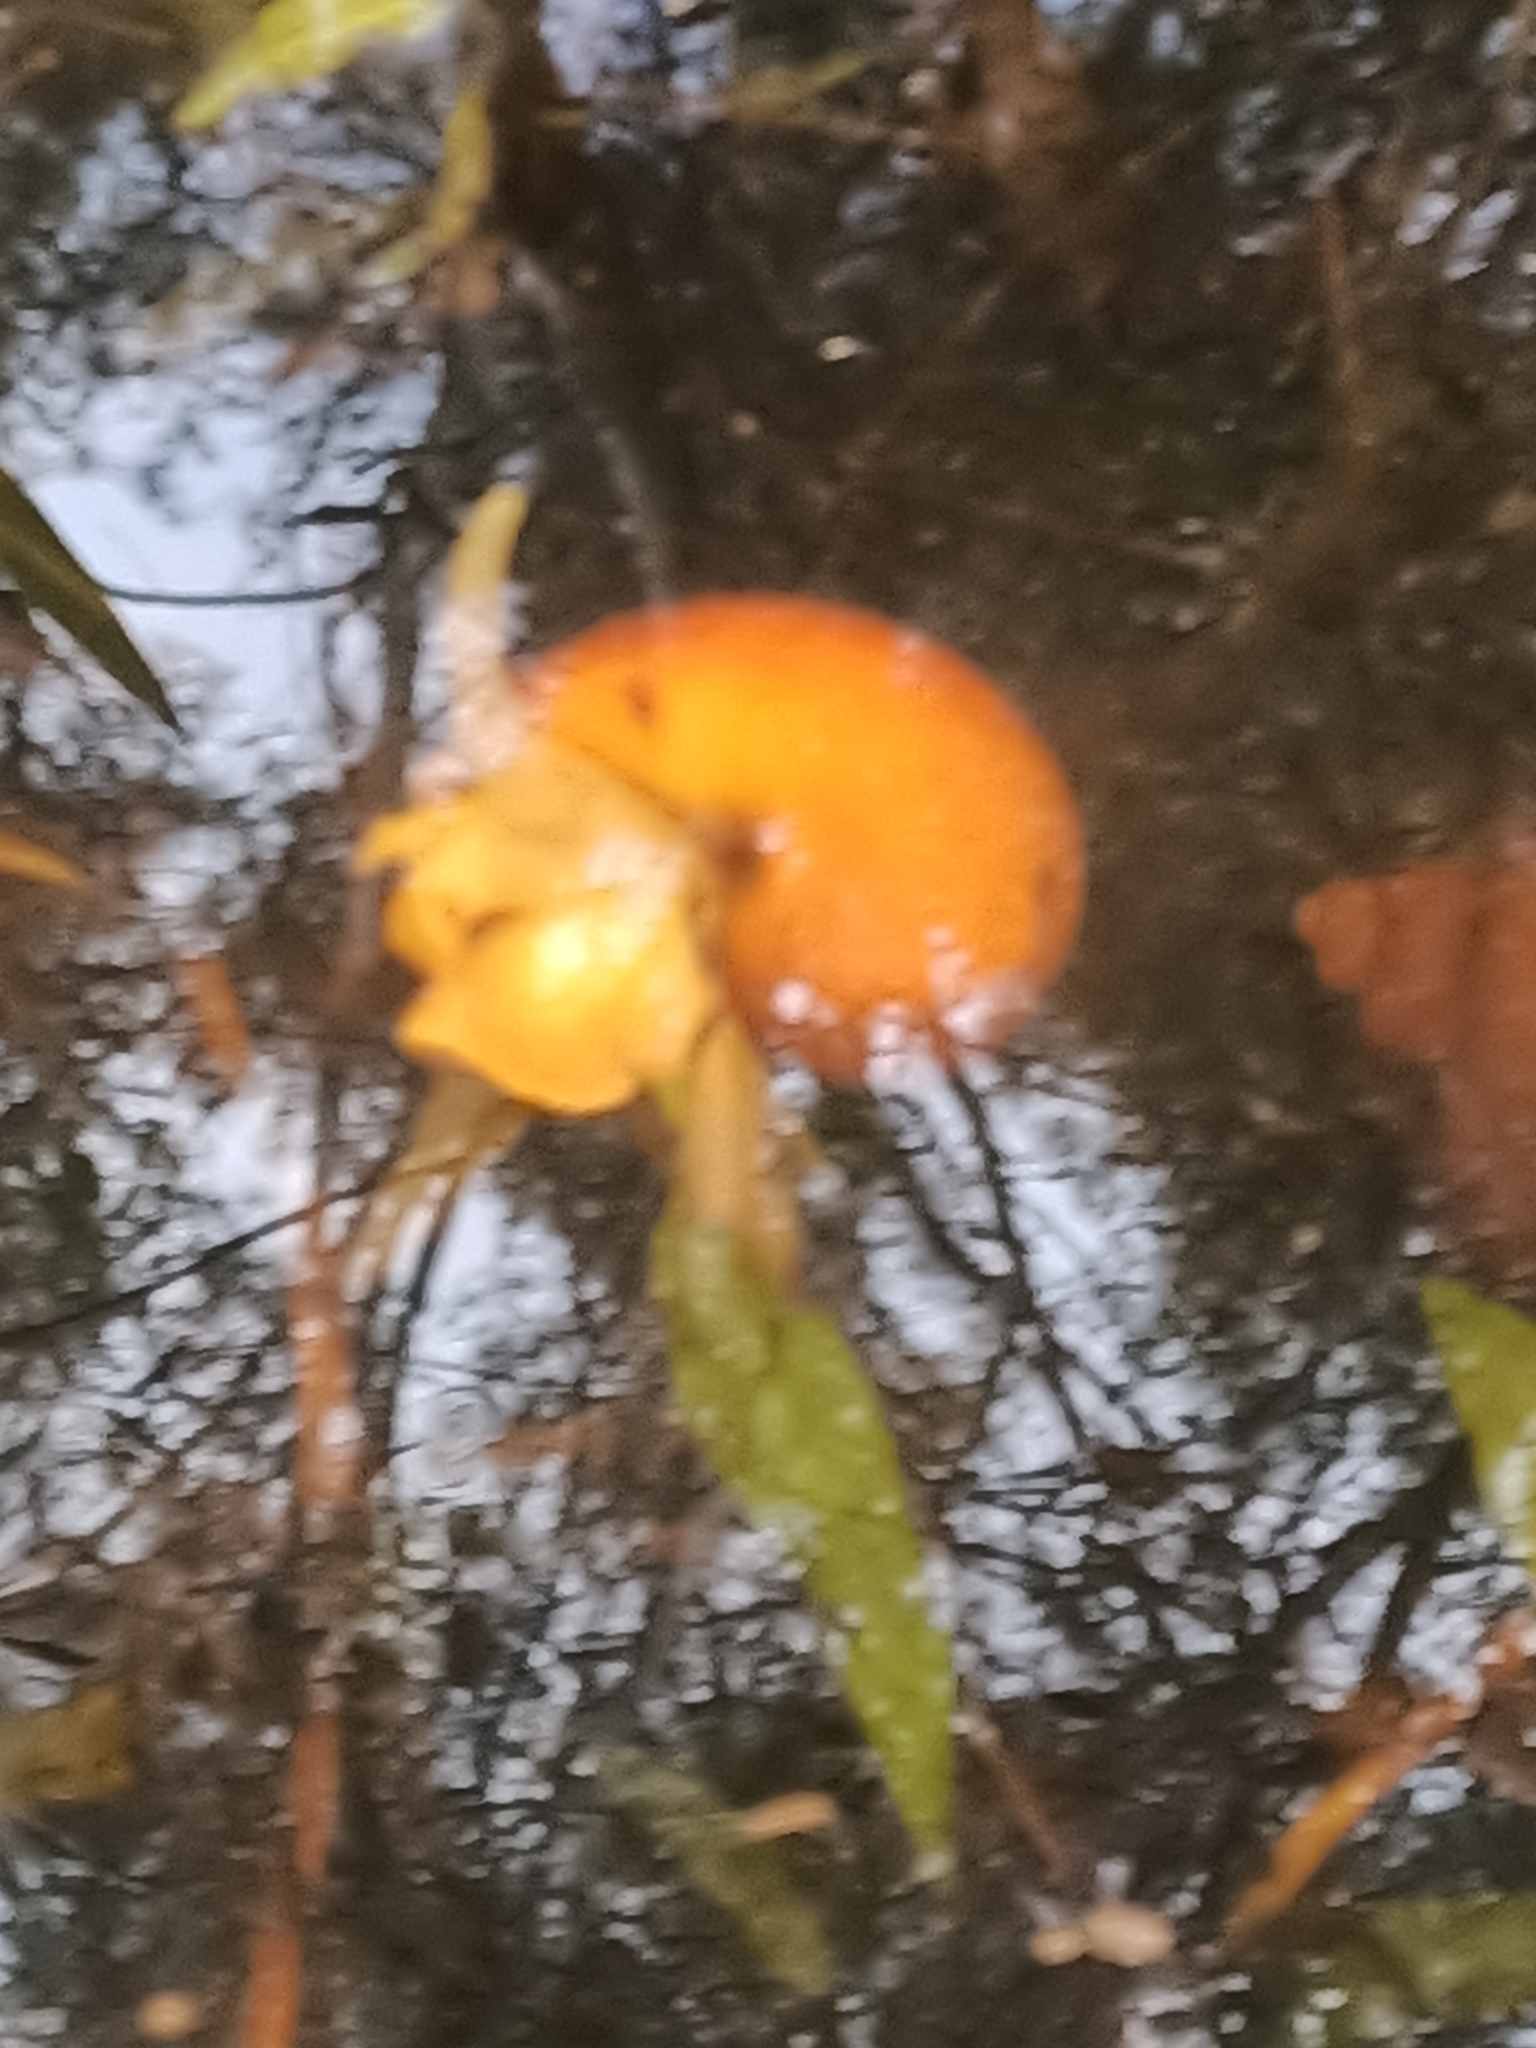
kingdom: Animalia
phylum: Mollusca
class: Gastropoda
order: Architaenioglossa
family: Ampullariidae
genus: Pomacea
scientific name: Pomacea diffusa
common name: Spike-topped applesnail
